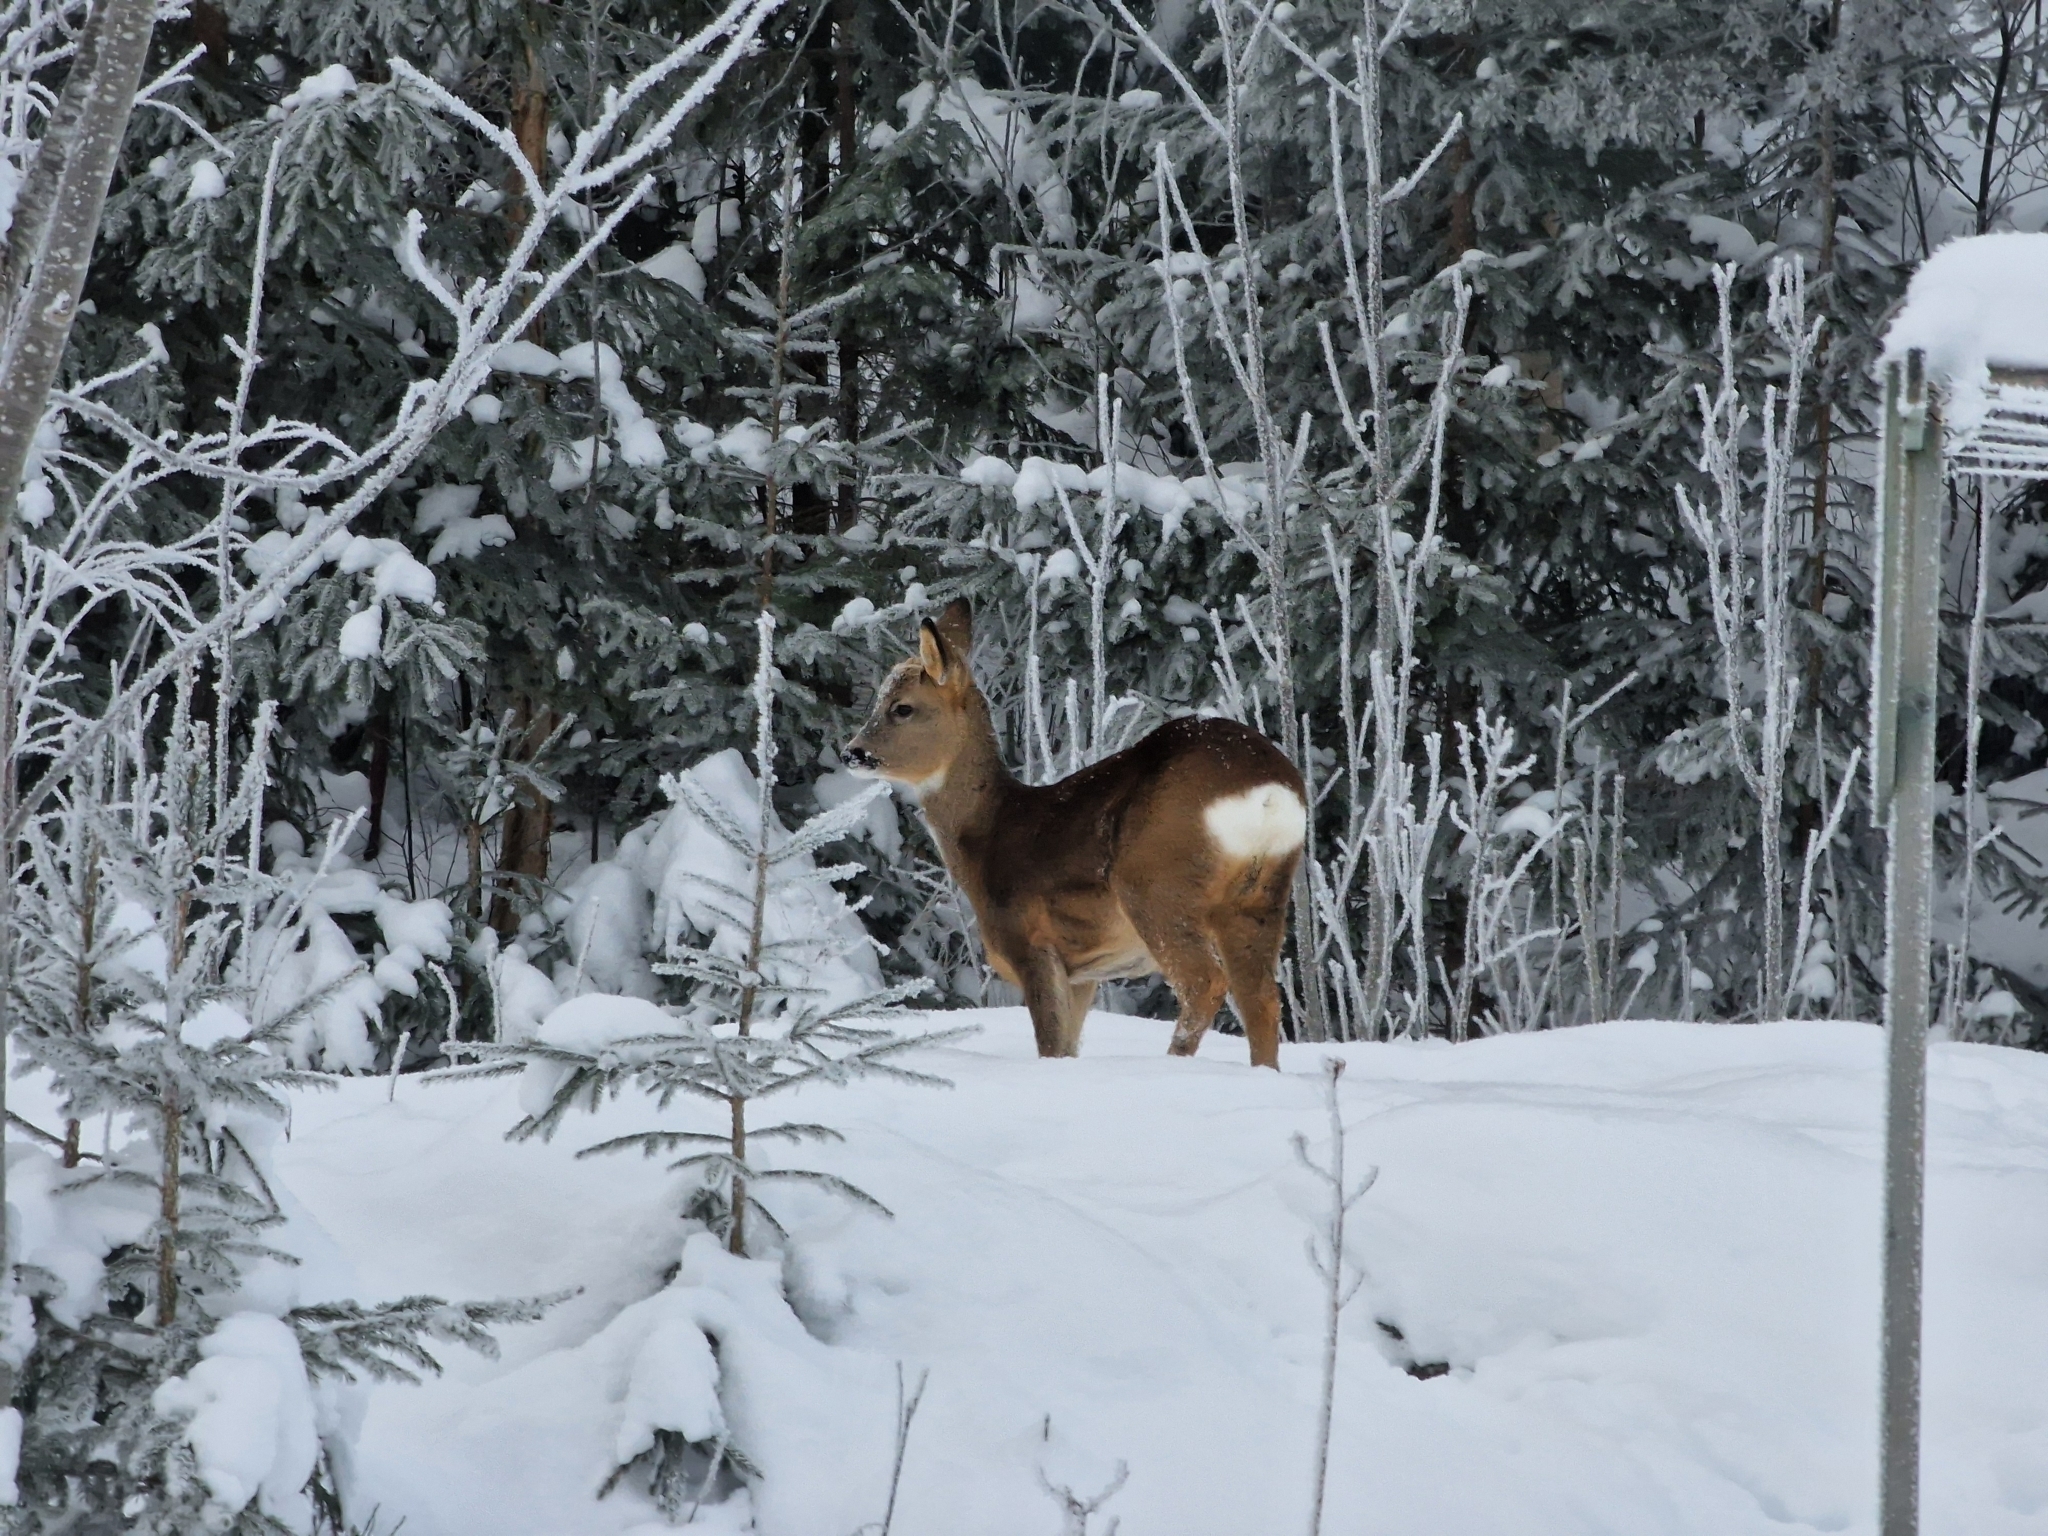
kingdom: Animalia
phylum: Chordata
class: Mammalia
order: Artiodactyla
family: Cervidae
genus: Capreolus
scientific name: Capreolus capreolus
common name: Western roe deer
